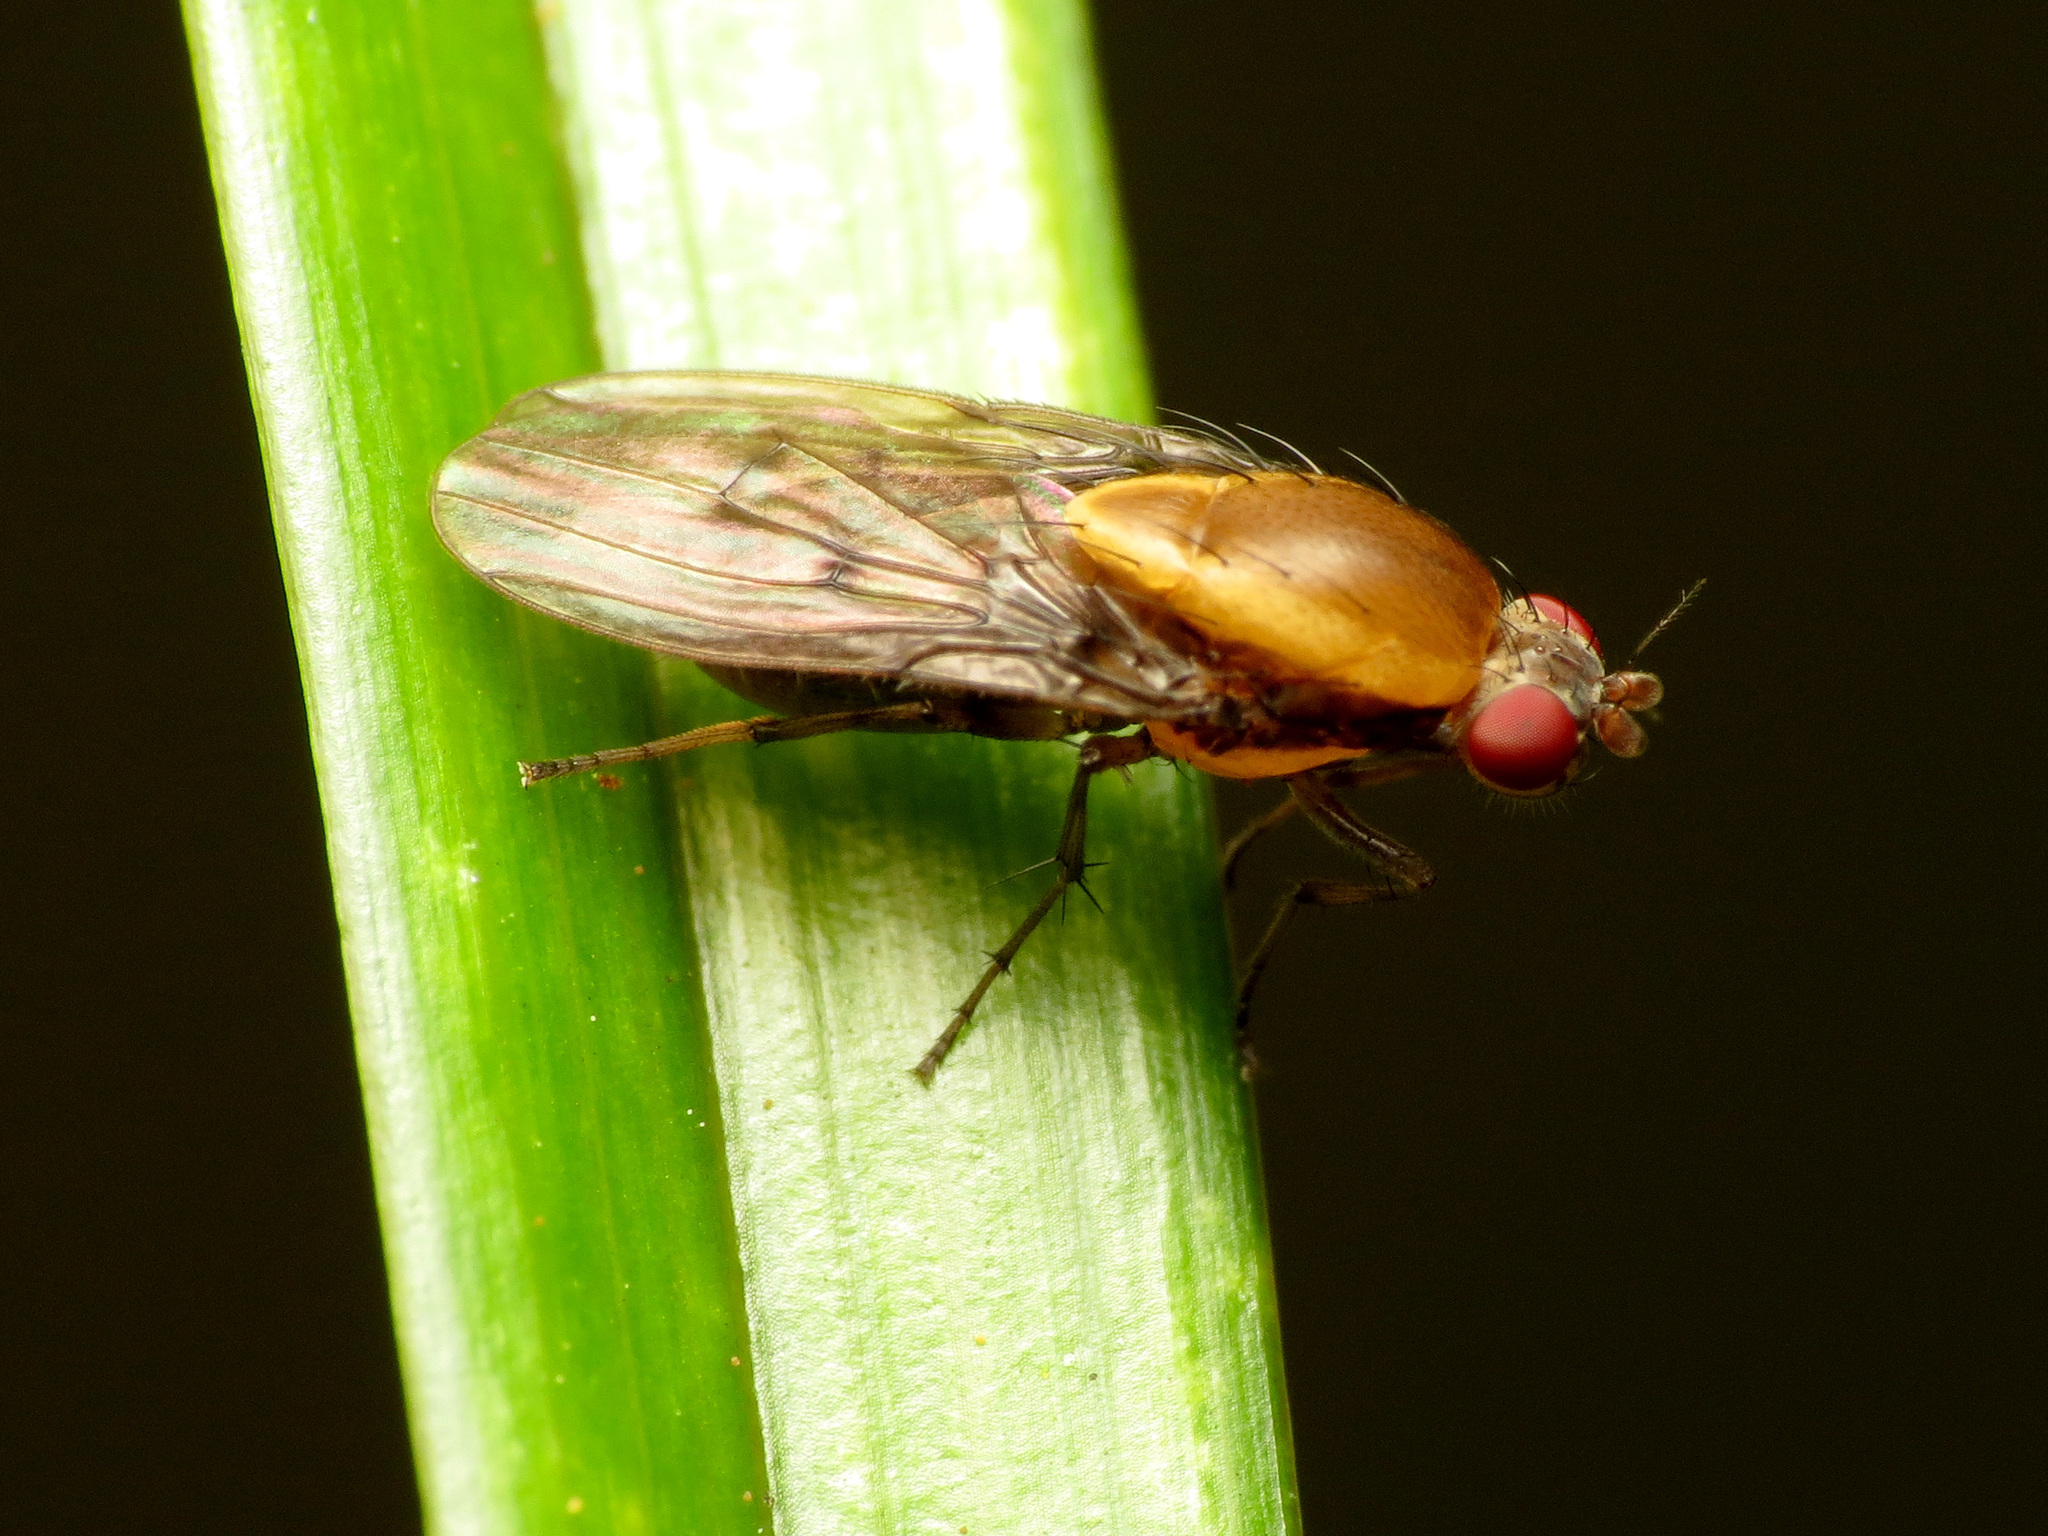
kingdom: Animalia
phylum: Arthropoda
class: Insecta
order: Diptera
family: Heleomyzidae
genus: Allophylopsis
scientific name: Allophylopsis scutellata
